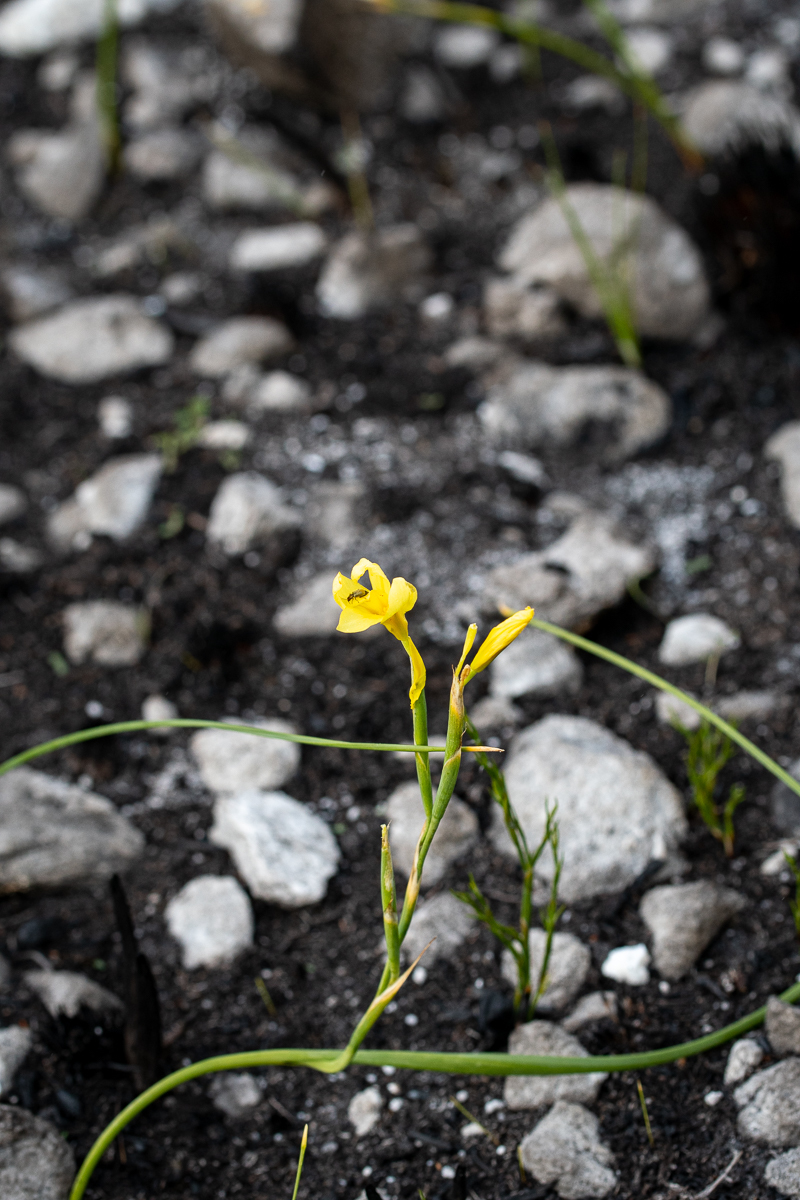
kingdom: Plantae
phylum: Tracheophyta
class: Liliopsida
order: Asparagales
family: Iridaceae
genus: Moraea
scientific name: Moraea pyrophila
